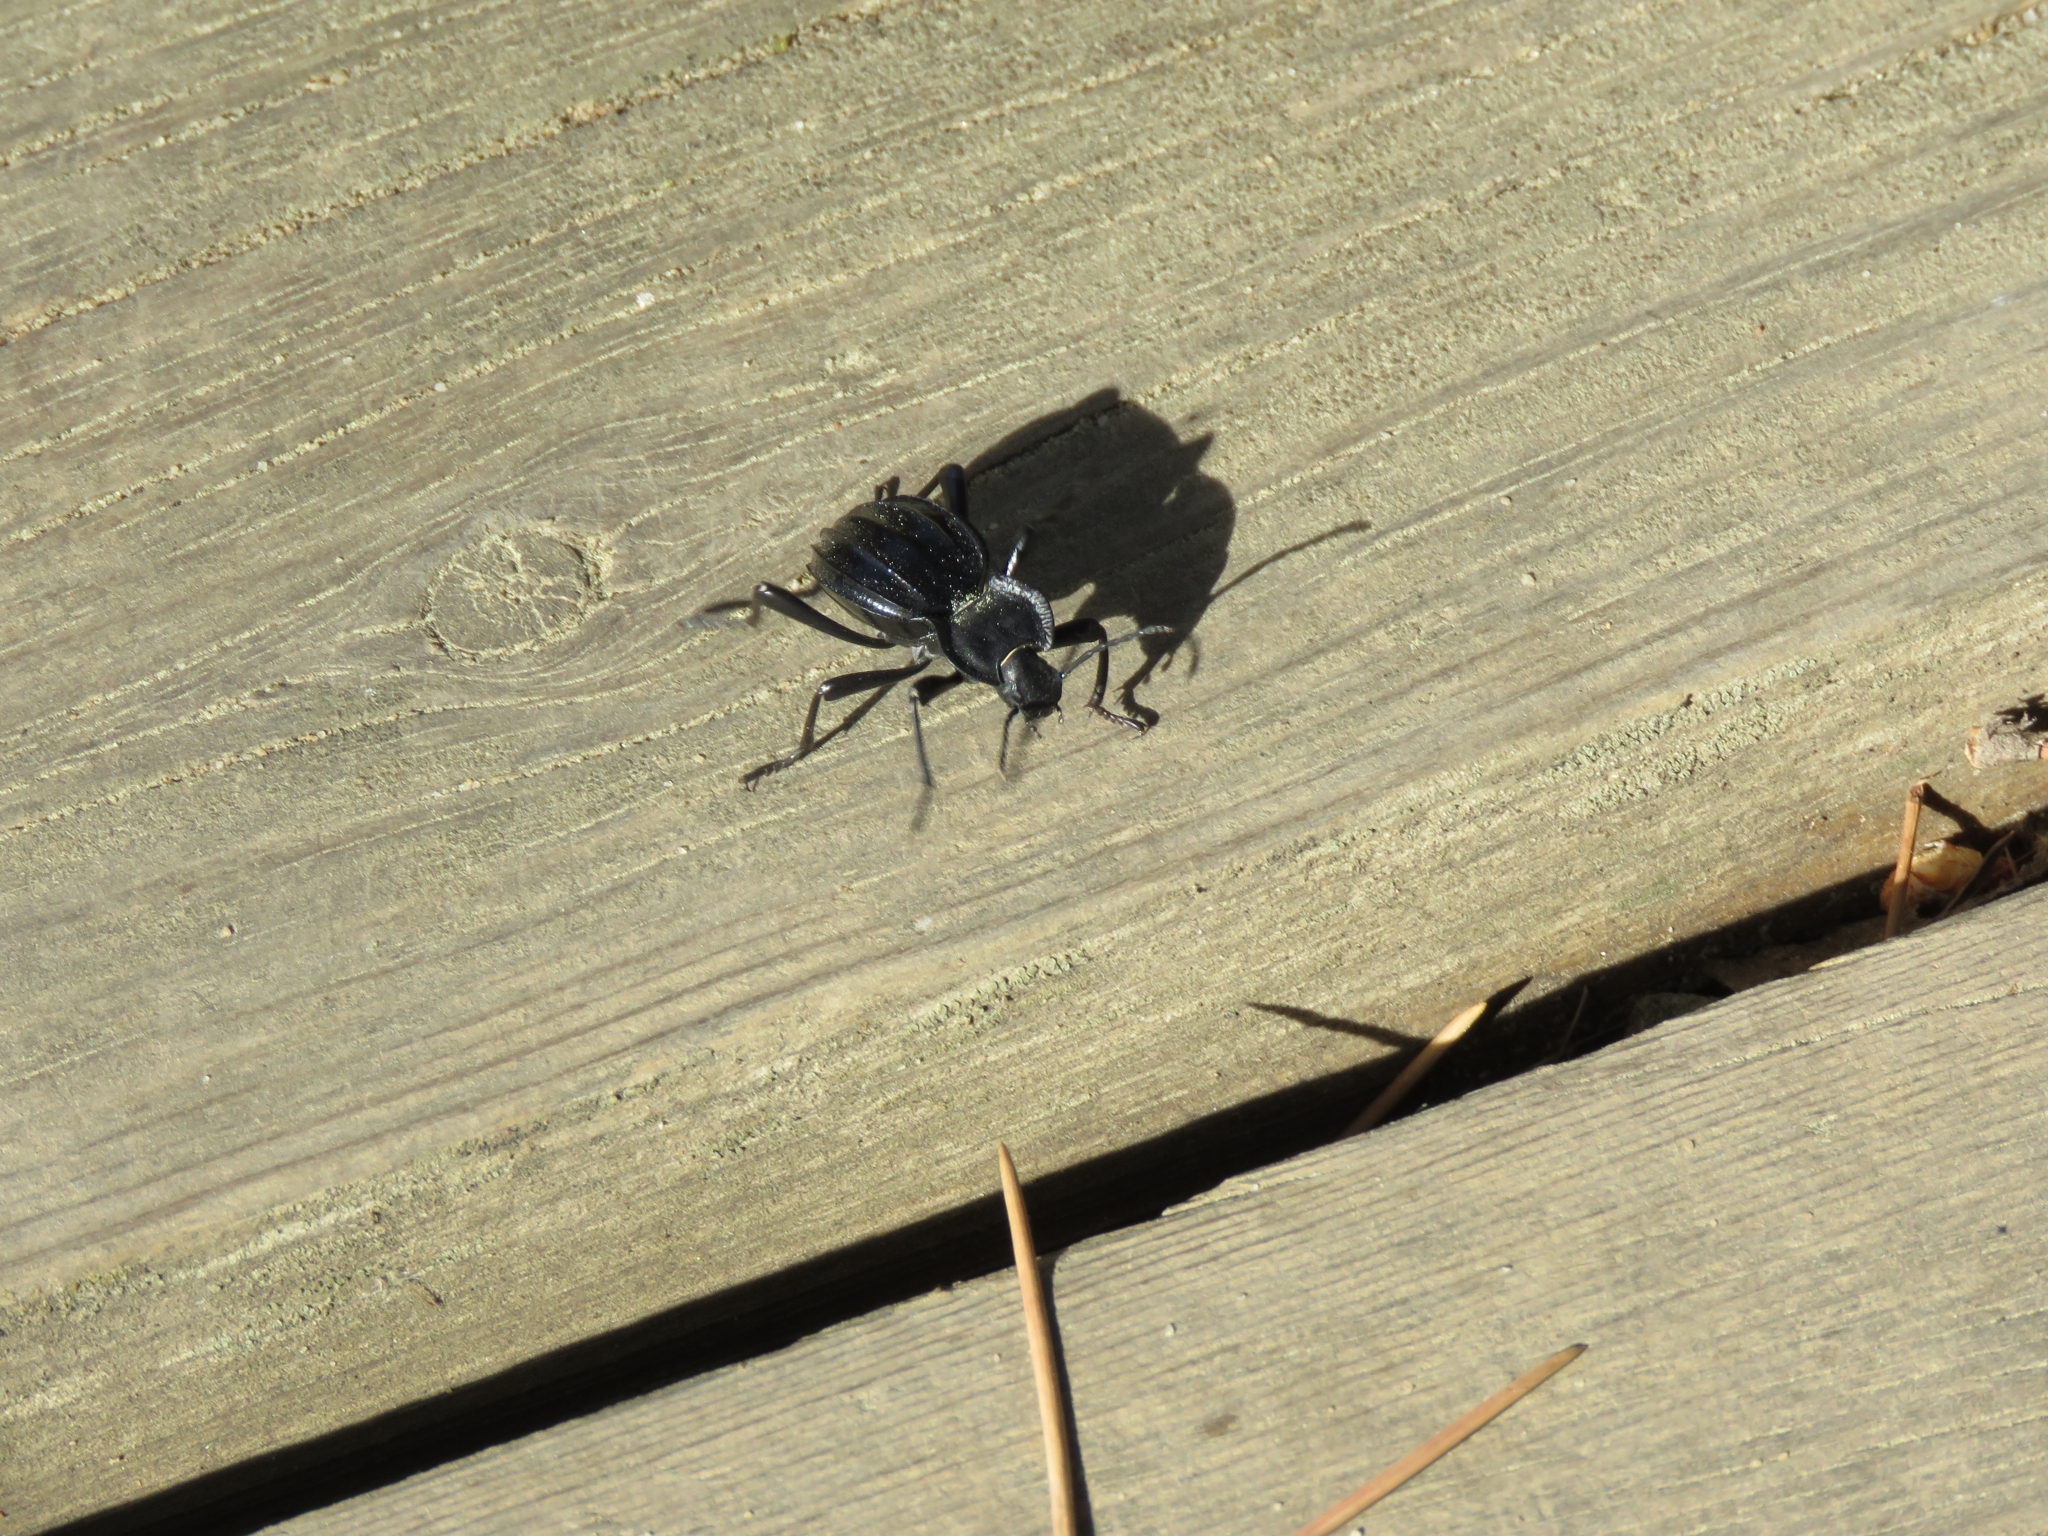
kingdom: Animalia
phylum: Arthropoda
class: Insecta
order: Coleoptera
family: Tenebrionidae
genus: Akis
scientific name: Akis granulifera
